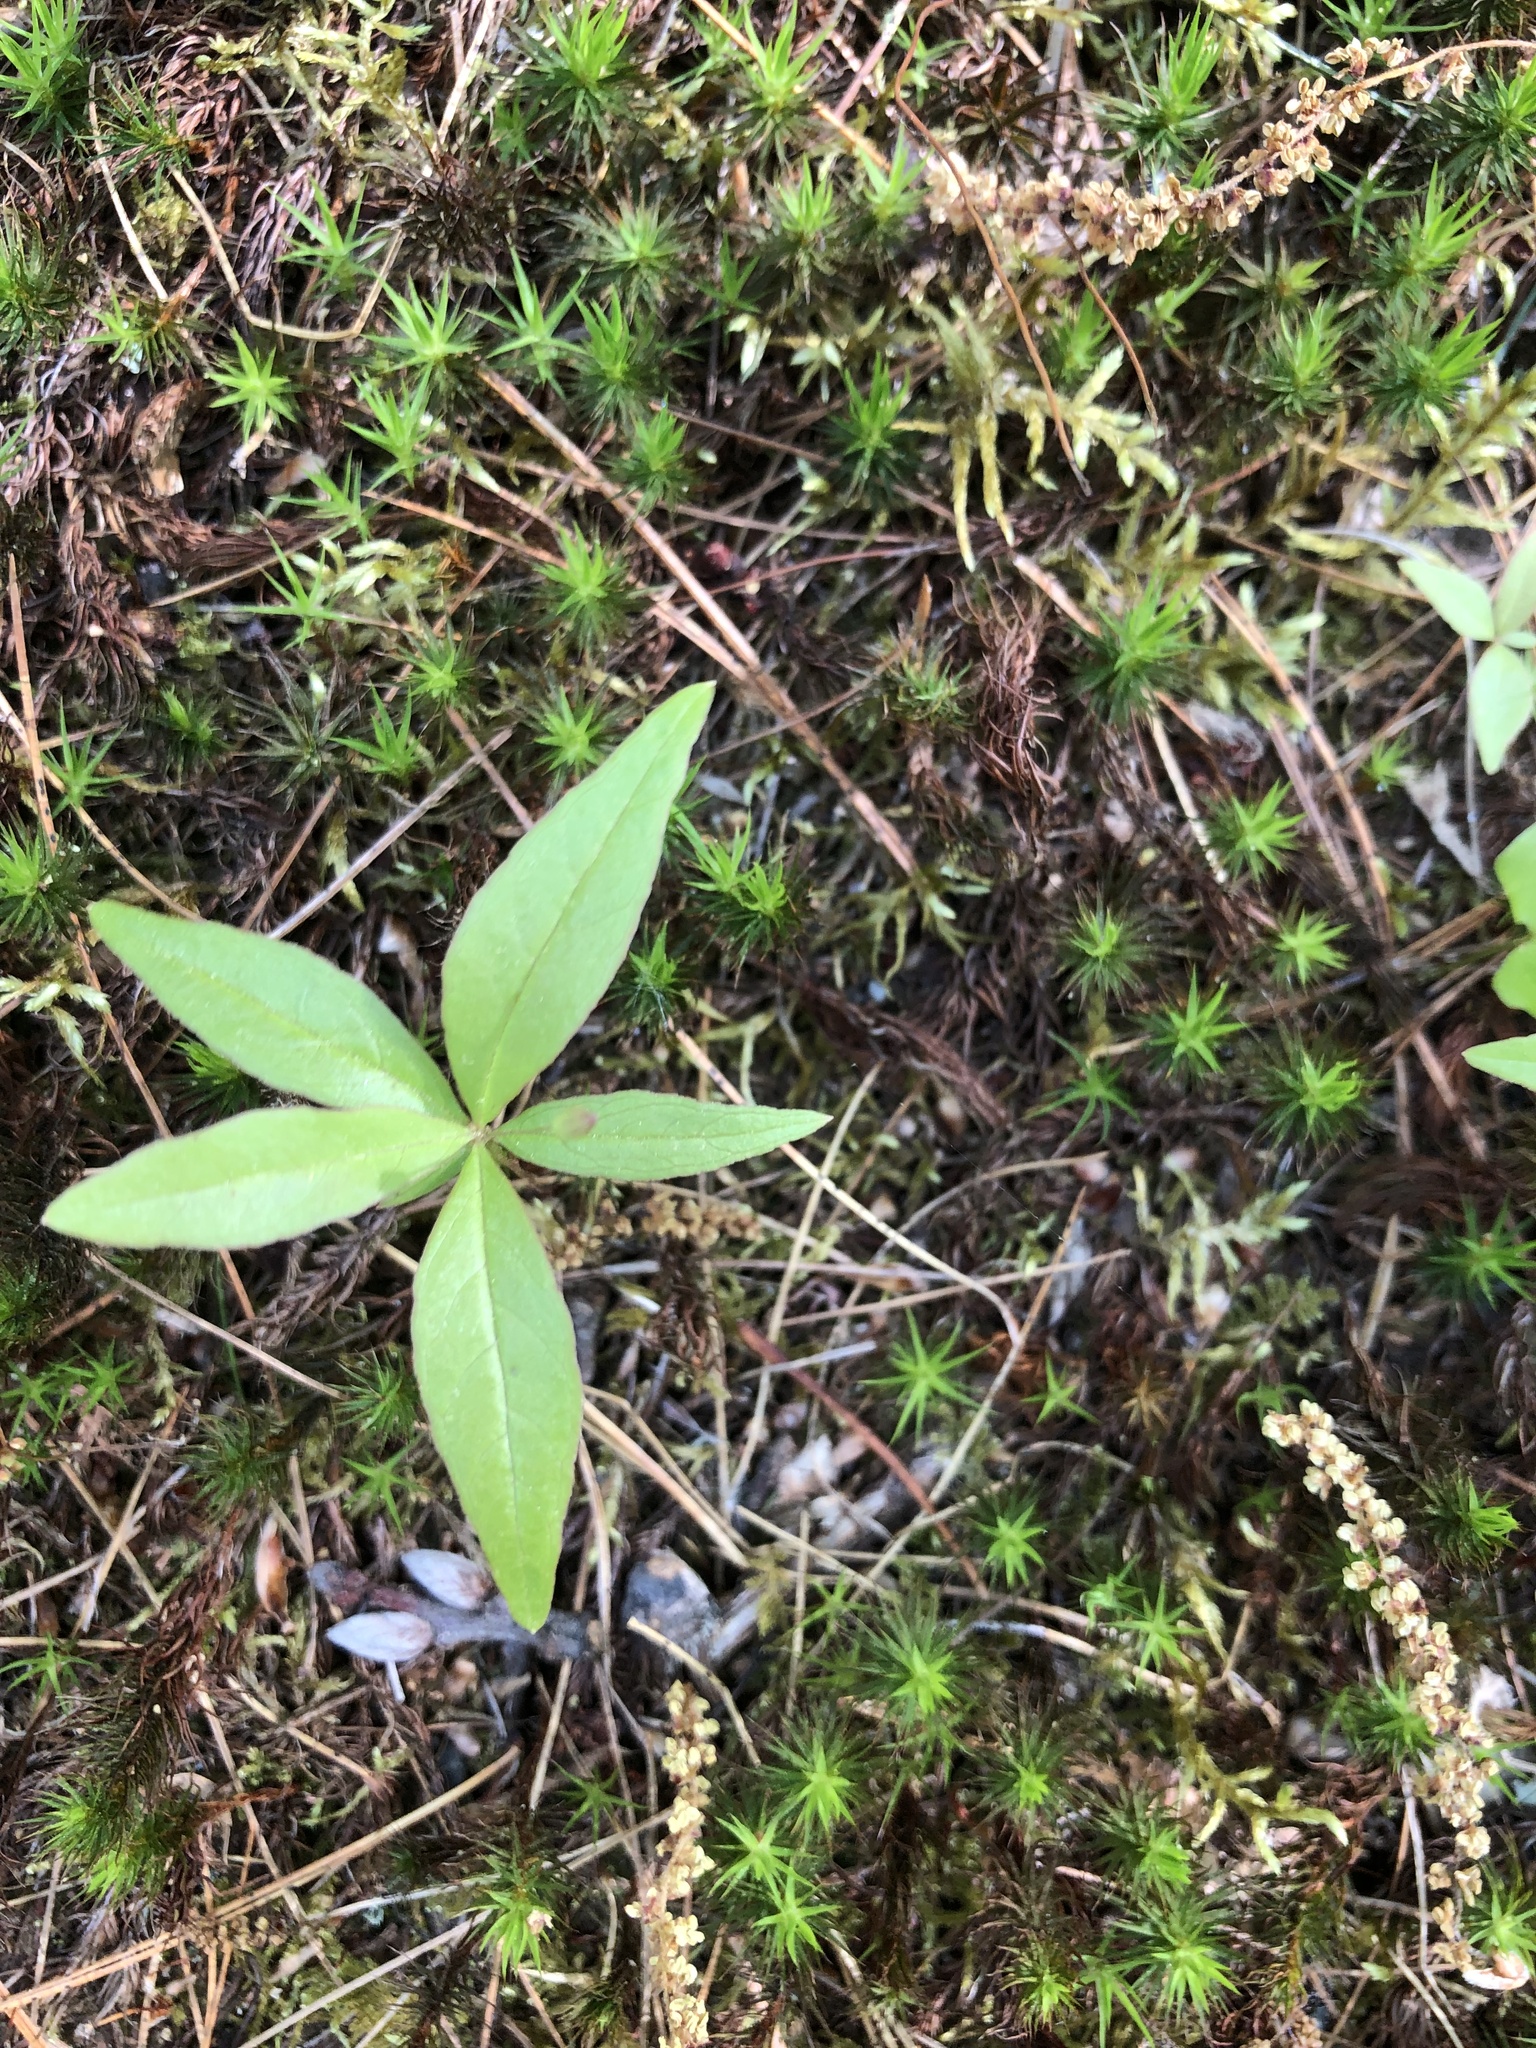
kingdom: Plantae
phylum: Tracheophyta
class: Magnoliopsida
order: Ericales
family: Primulaceae
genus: Lysimachia
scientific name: Lysimachia borealis
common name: American starflower
